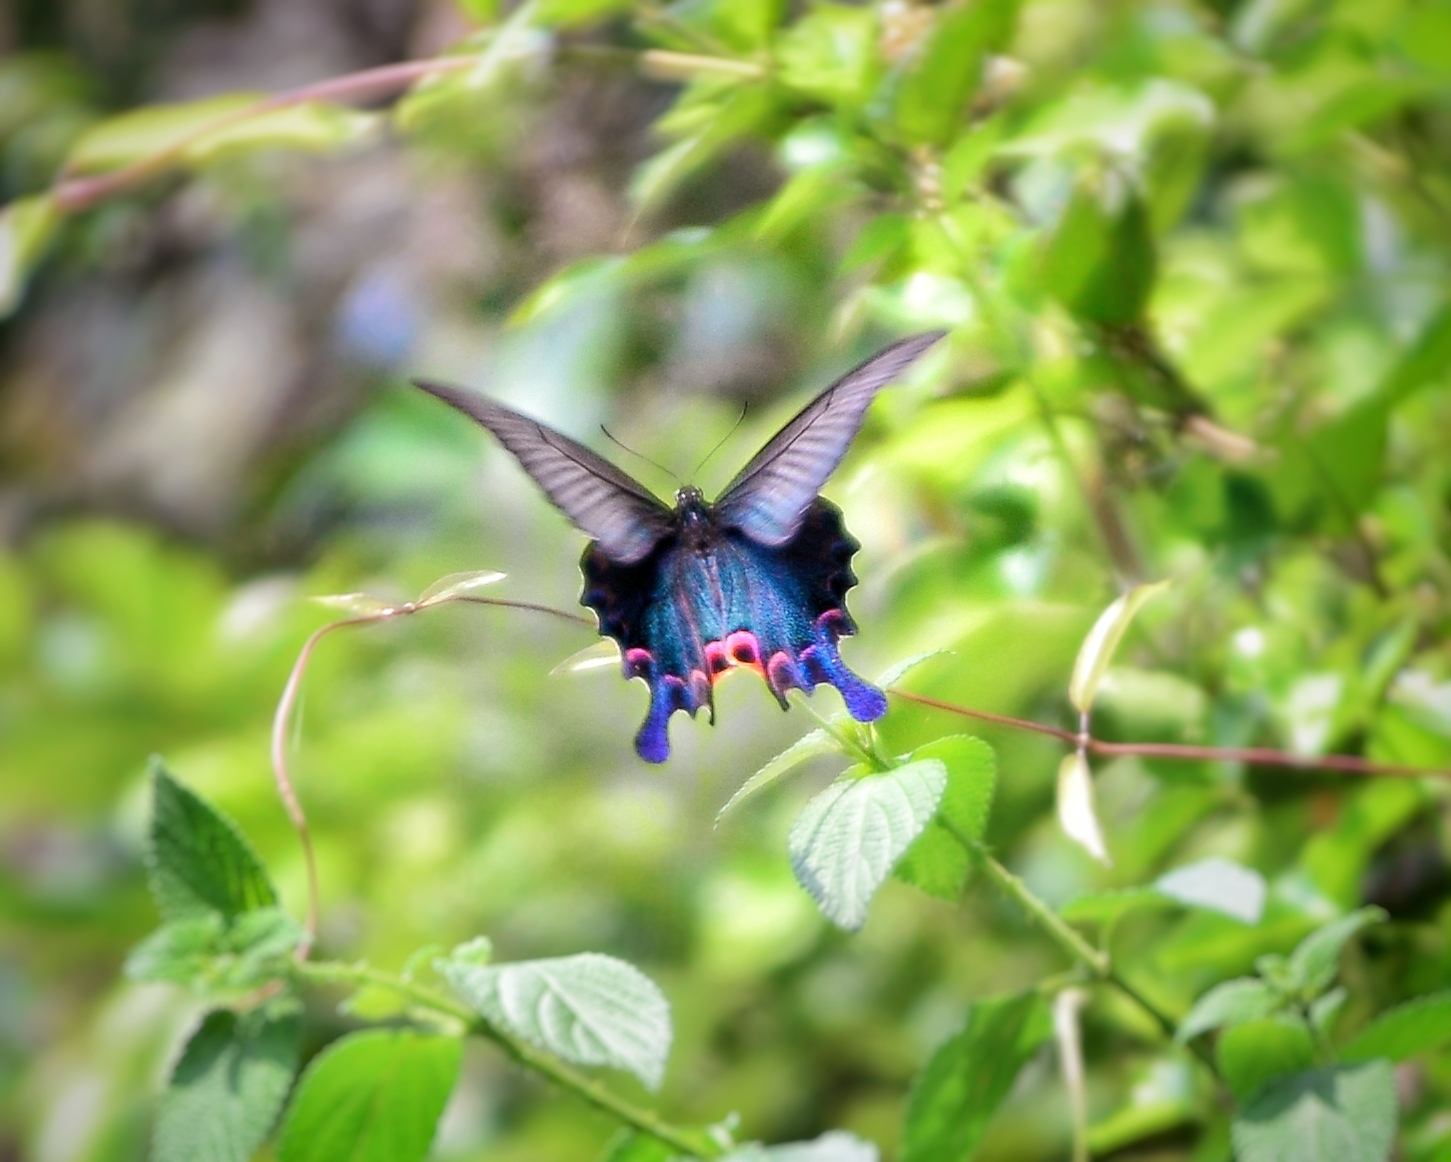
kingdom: Animalia
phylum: Arthropoda
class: Insecta
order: Lepidoptera
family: Papilionidae
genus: Papilio
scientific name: Papilio dialis
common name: Southern chinese peacock swallowtail
